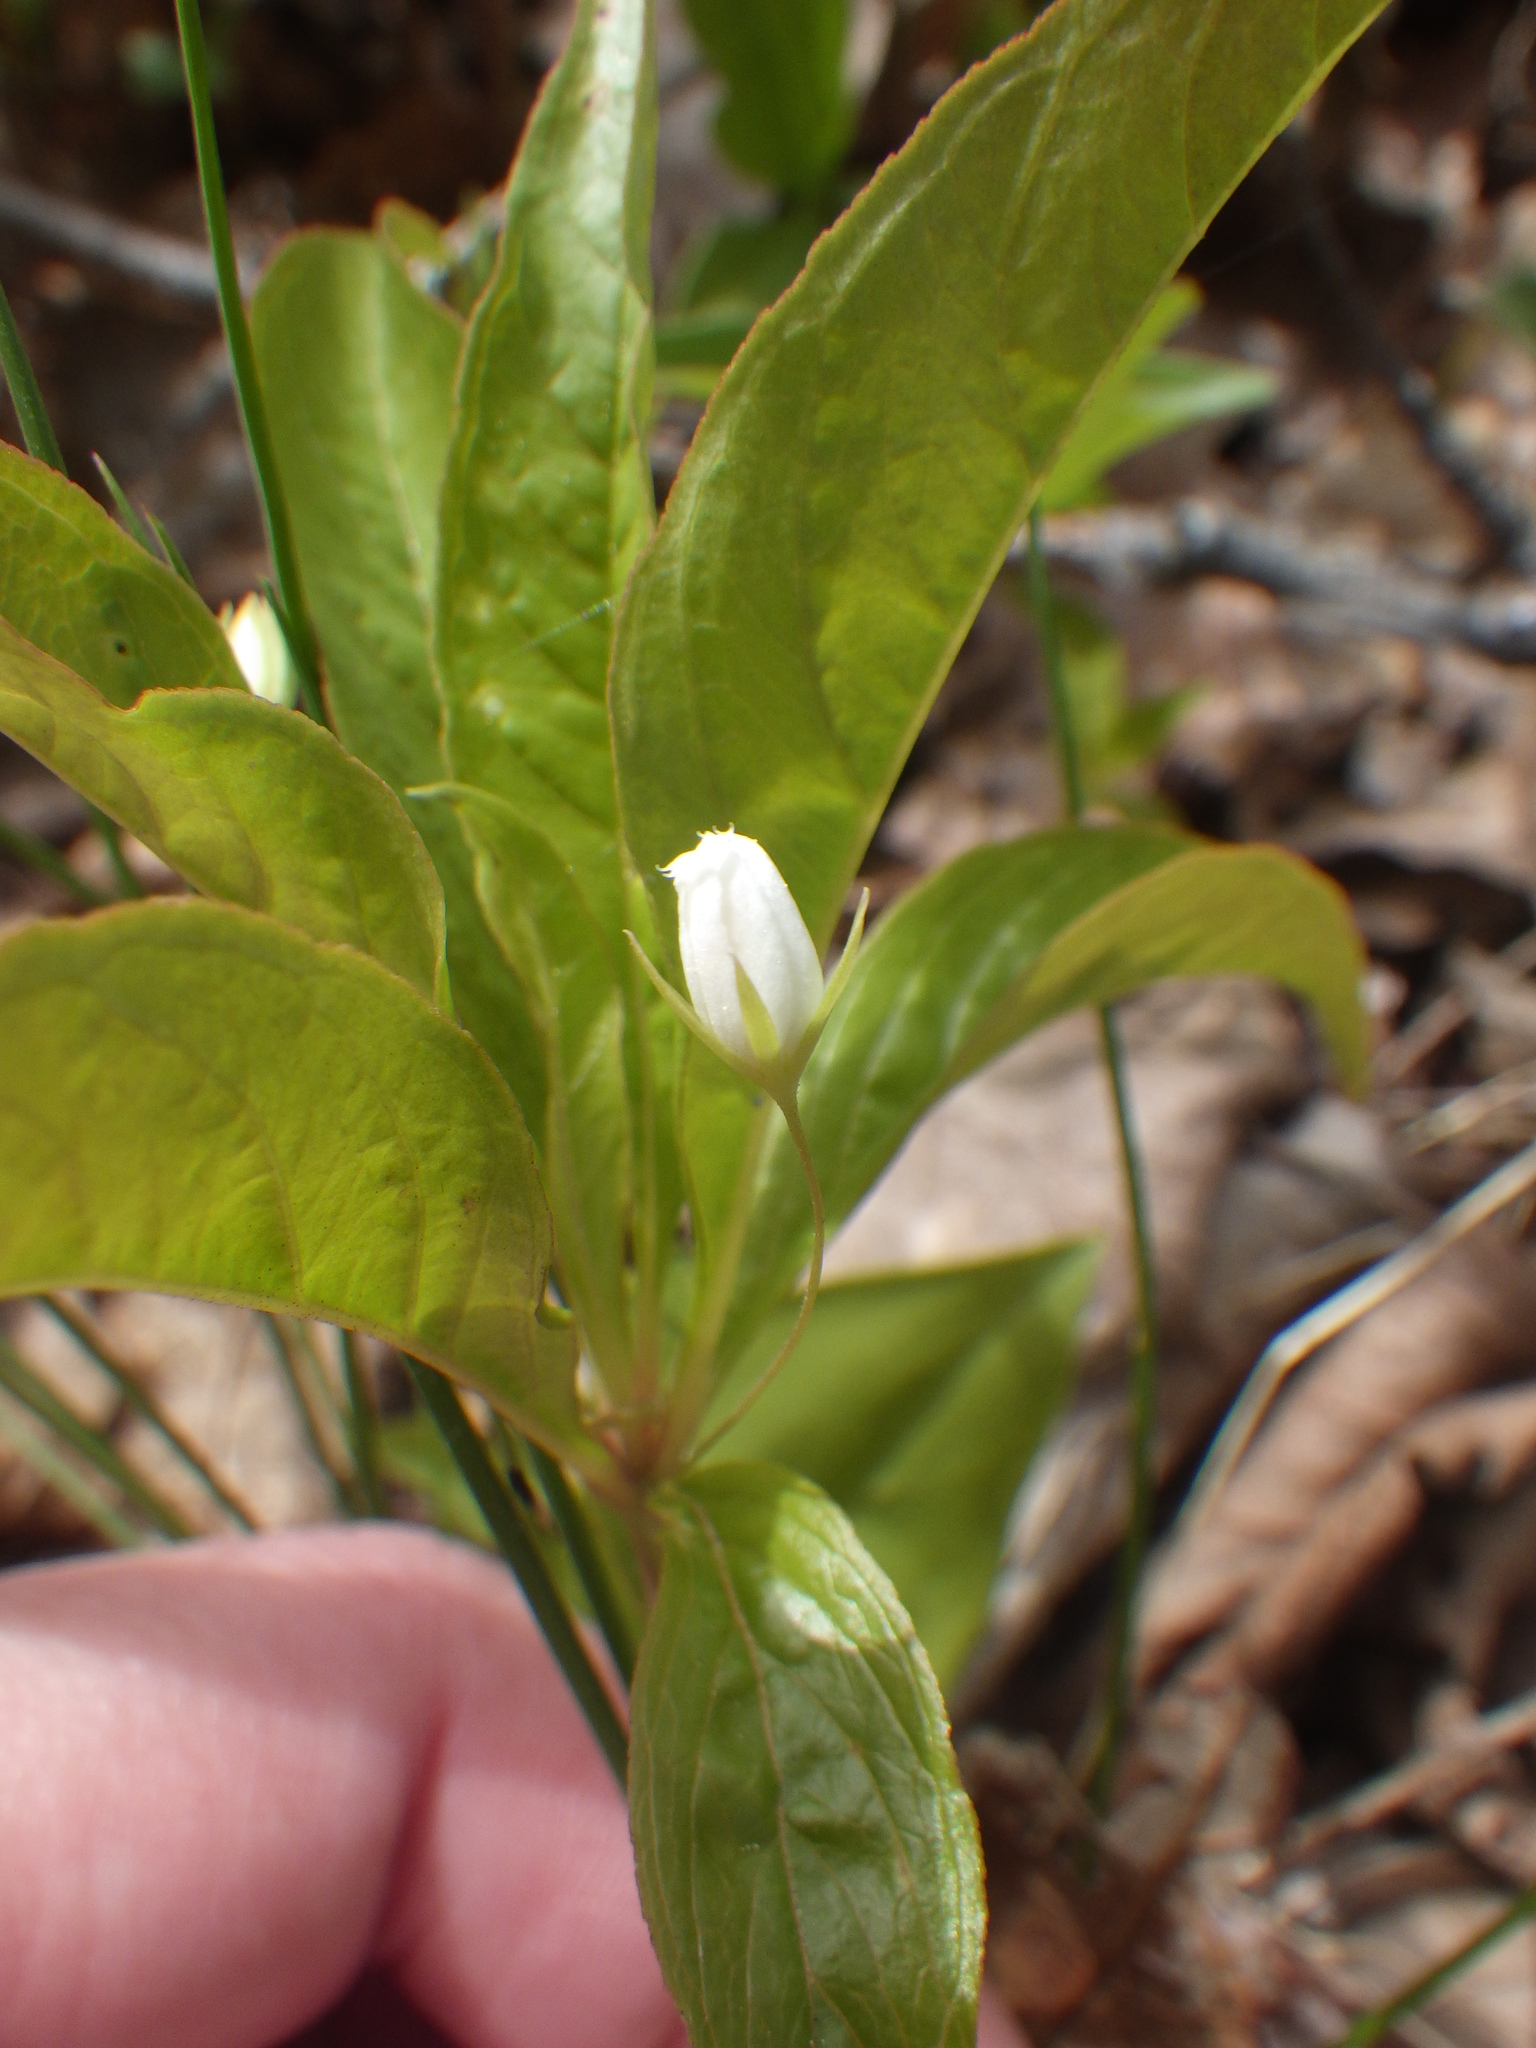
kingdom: Plantae
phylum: Tracheophyta
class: Magnoliopsida
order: Ericales
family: Primulaceae
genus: Lysimachia
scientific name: Lysimachia borealis
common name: American starflower
